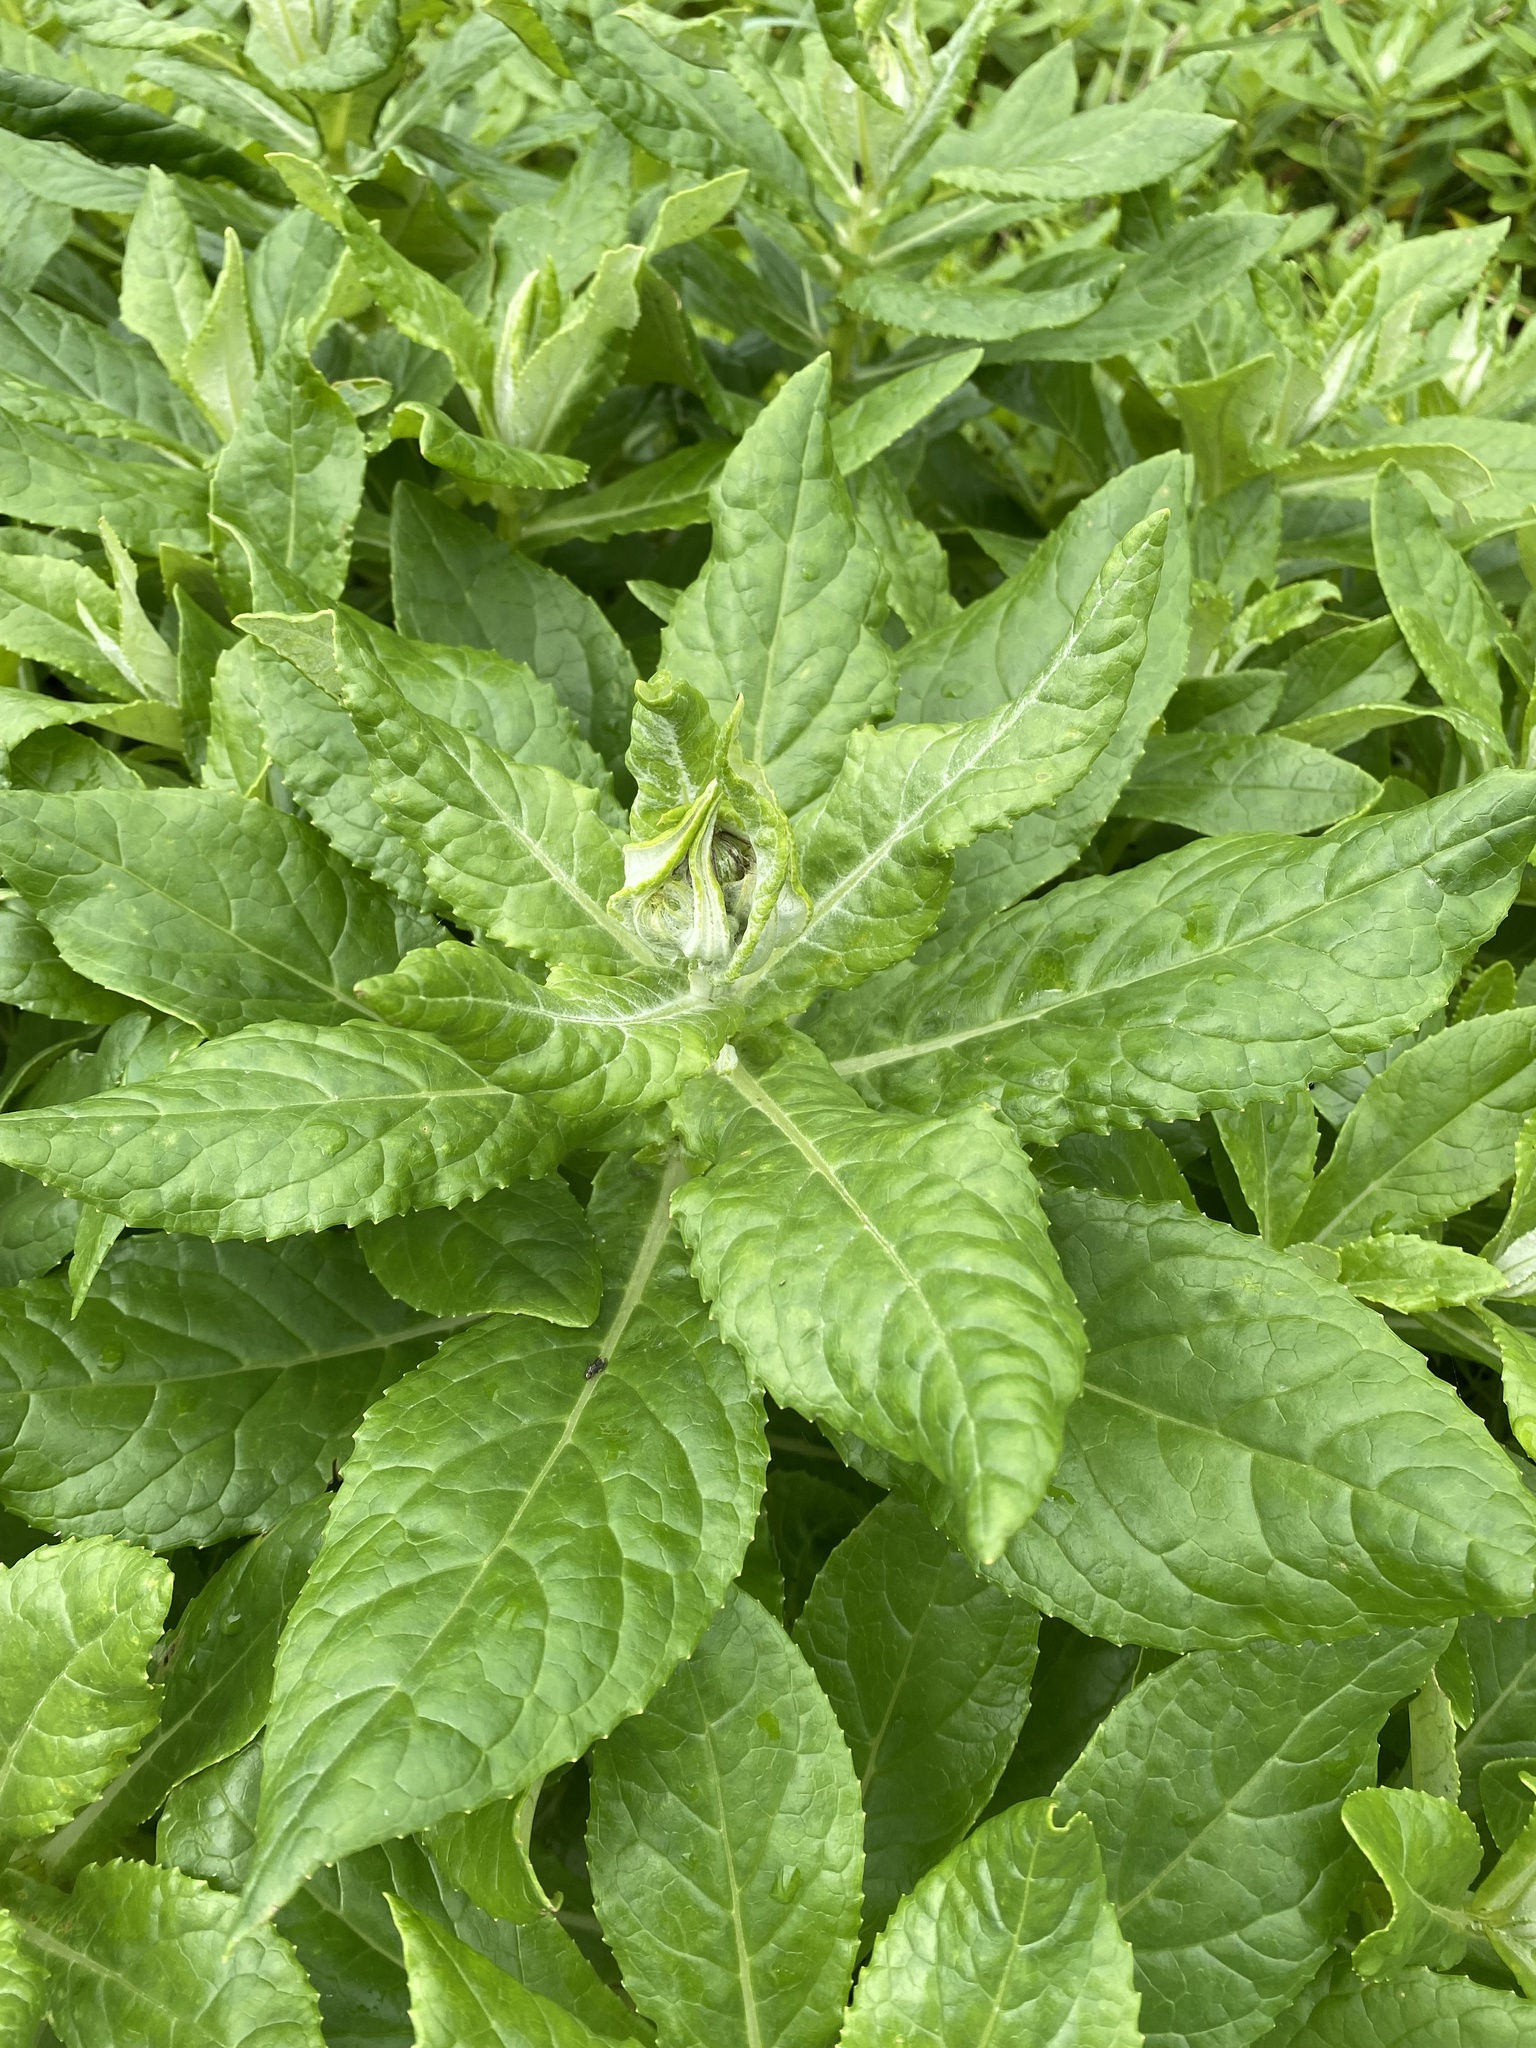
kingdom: Plantae
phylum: Tracheophyta
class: Magnoliopsida
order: Asterales
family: Asteraceae
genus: Jacobaea
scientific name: Jacobaea pseudoarnica
